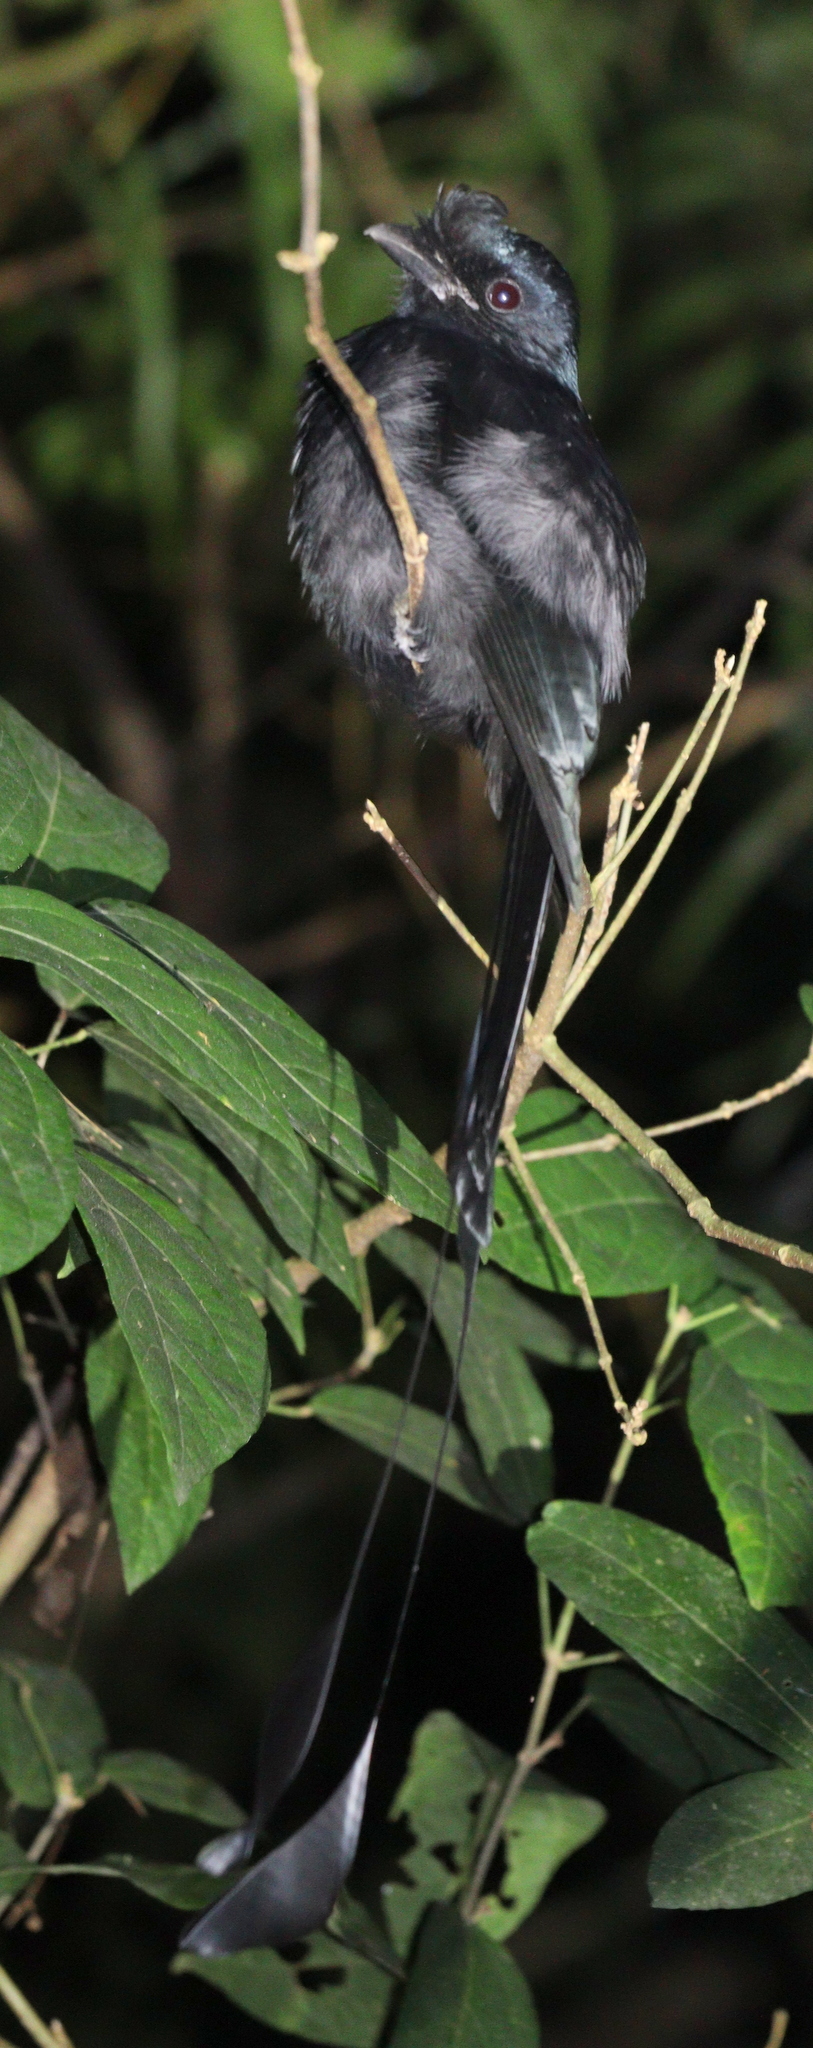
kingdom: Animalia
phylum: Chordata
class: Aves
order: Passeriformes
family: Dicruridae
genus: Dicrurus
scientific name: Dicrurus paradiseus
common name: Greater racket-tailed drongo
